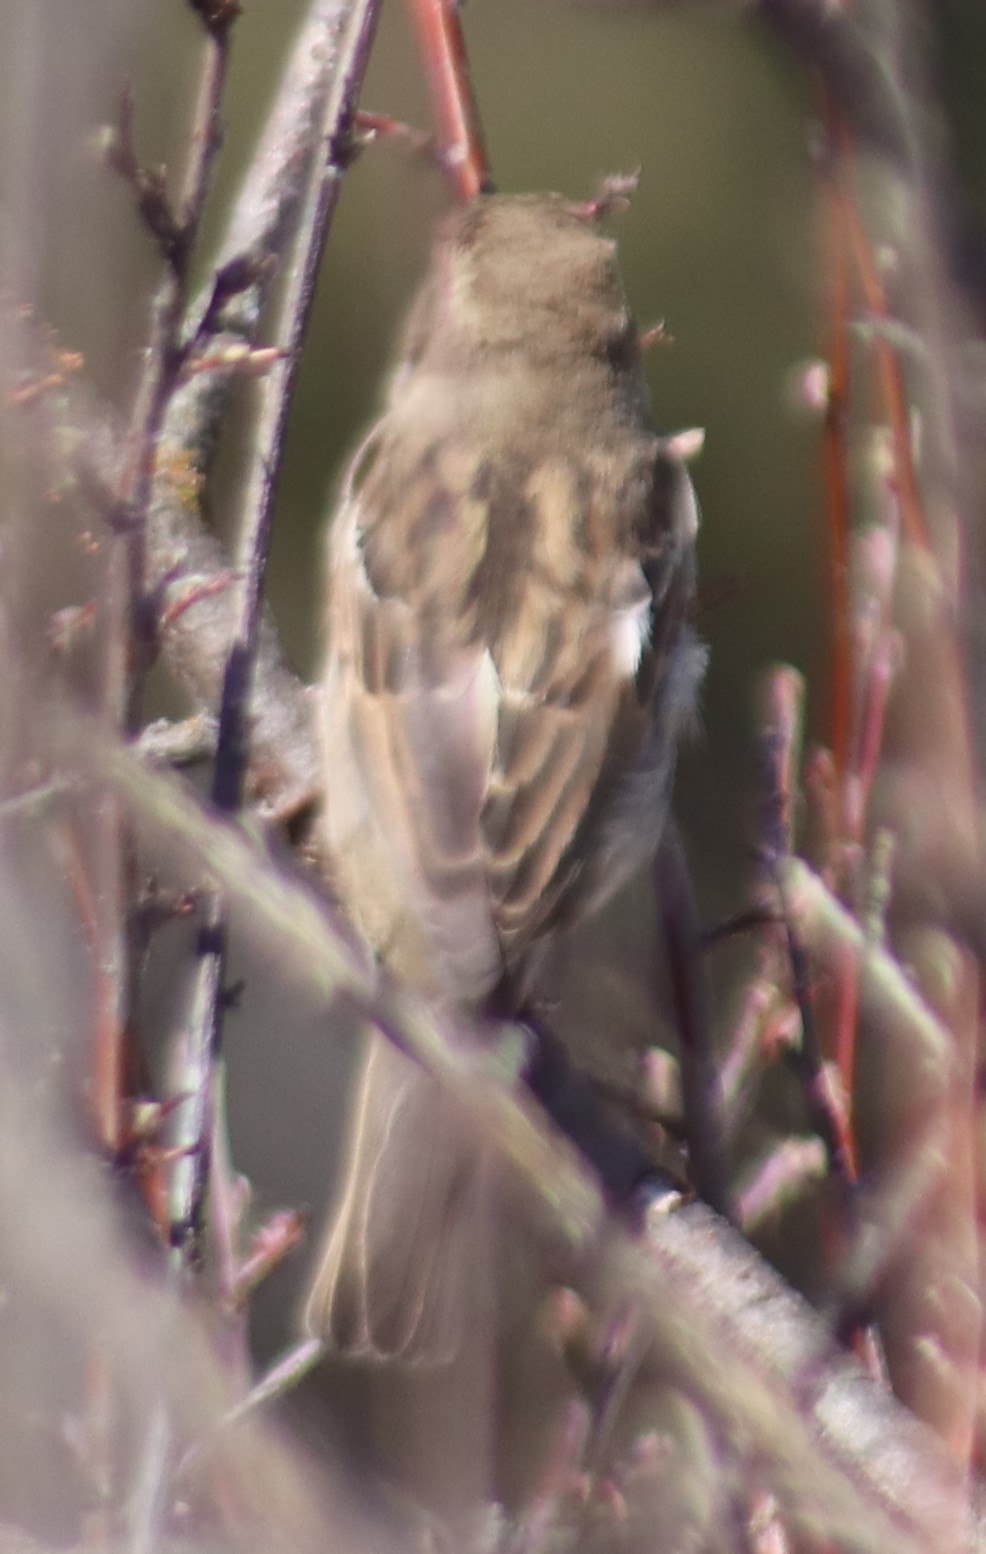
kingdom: Animalia
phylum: Chordata
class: Aves
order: Passeriformes
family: Passeridae
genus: Passer
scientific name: Passer domesticus
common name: House sparrow
